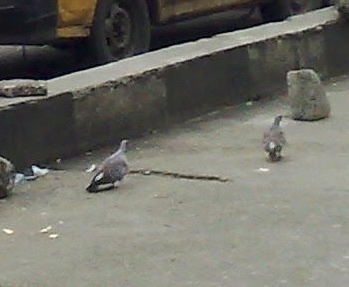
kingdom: Animalia
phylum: Chordata
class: Aves
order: Columbiformes
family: Columbidae
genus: Columba
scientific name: Columba guinea
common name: Speckled pigeon
